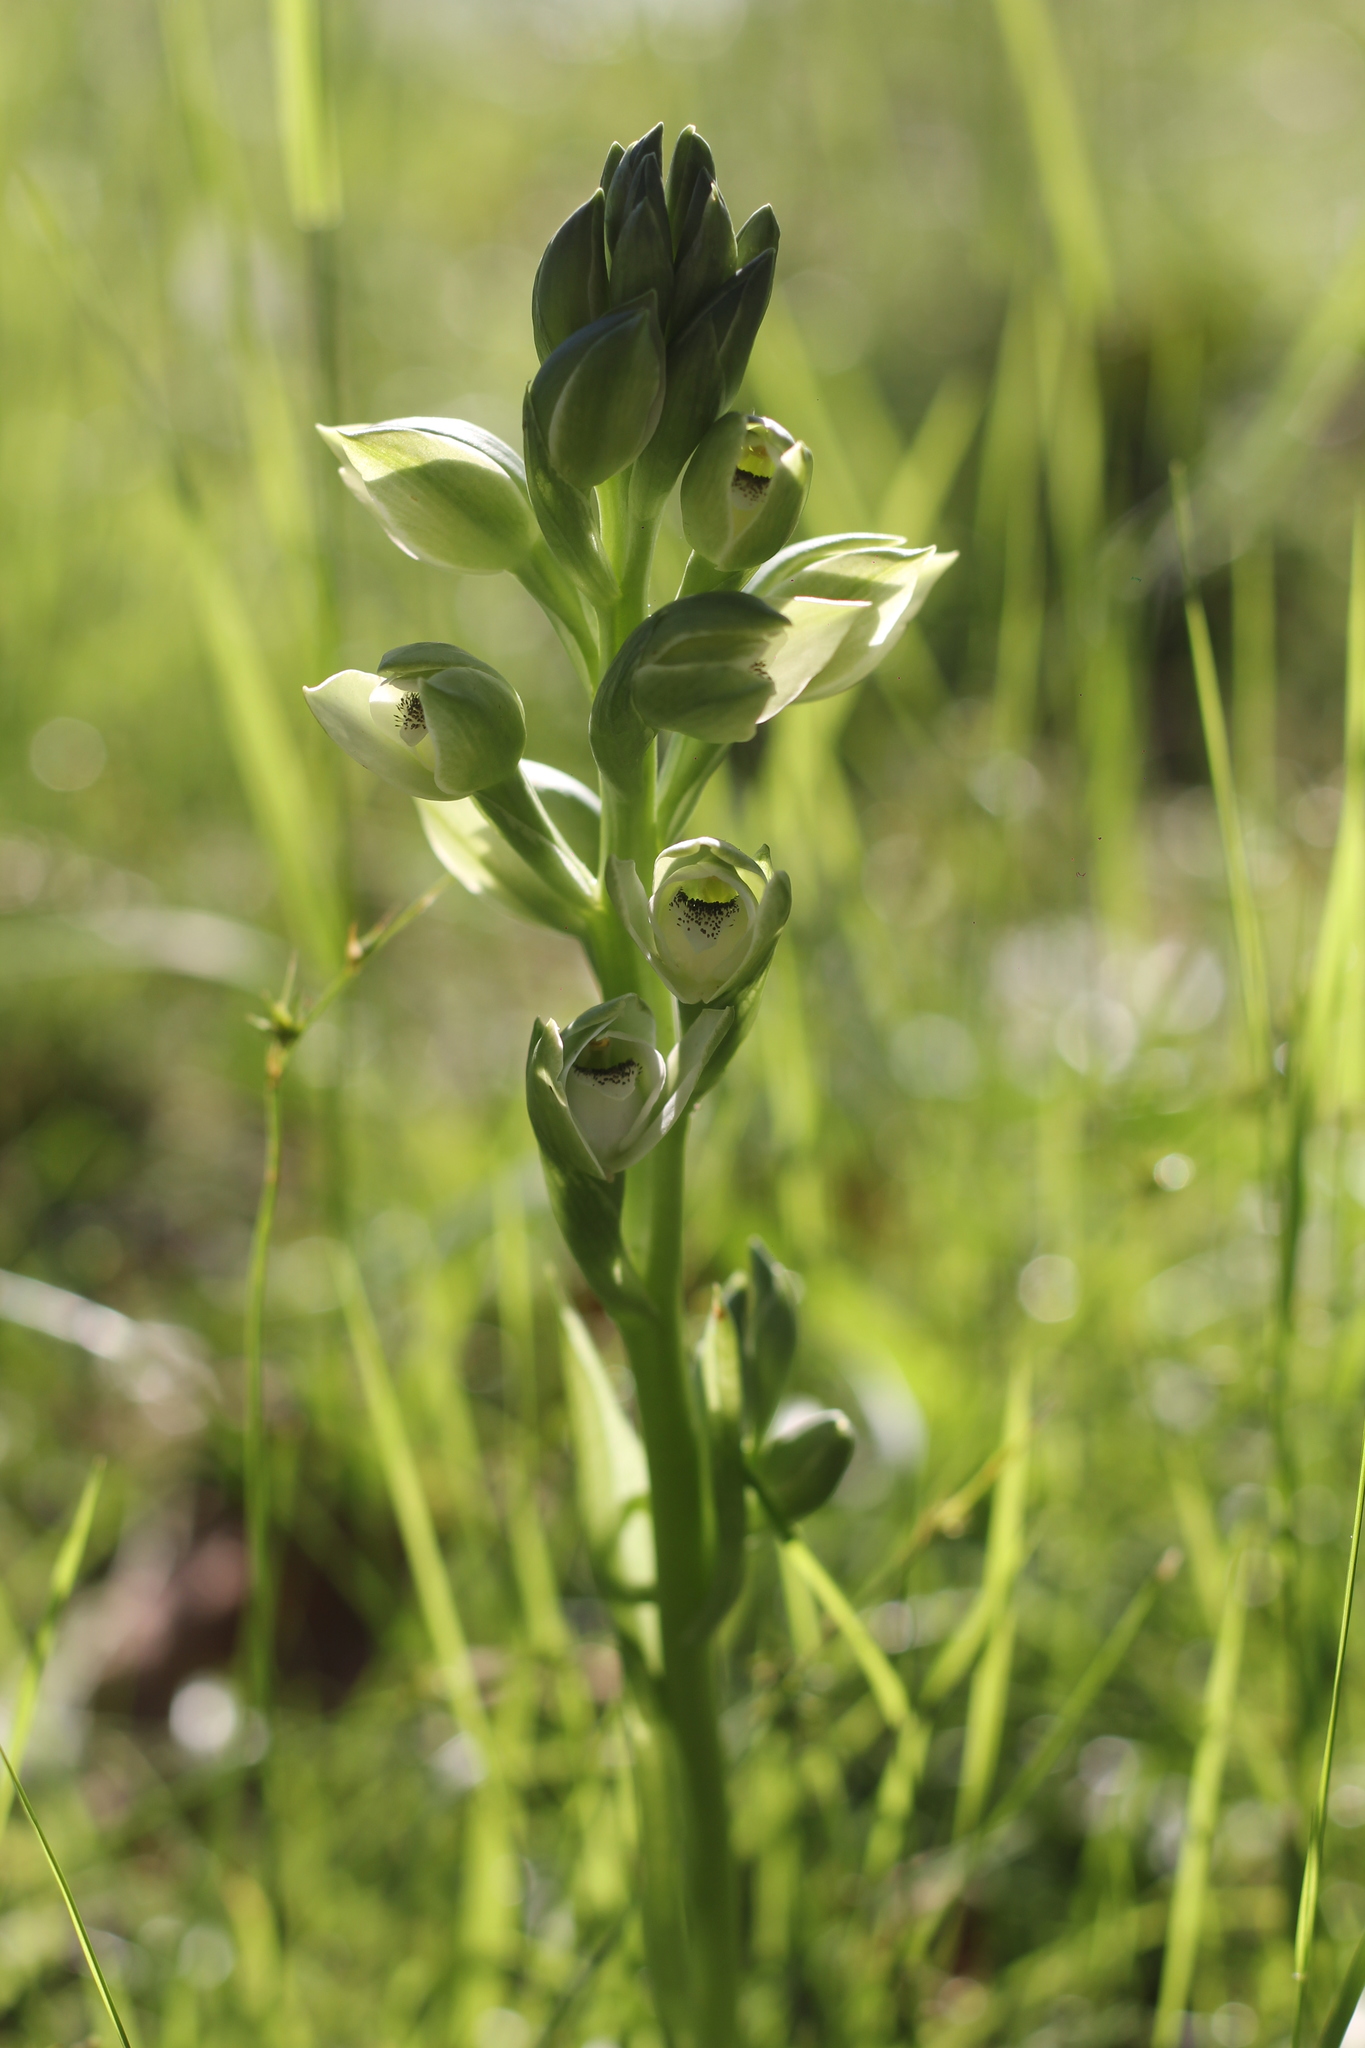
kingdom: Plantae
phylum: Tracheophyta
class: Liliopsida
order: Asparagales
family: Orchidaceae
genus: Chloraea
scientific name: Chloraea membranacea
